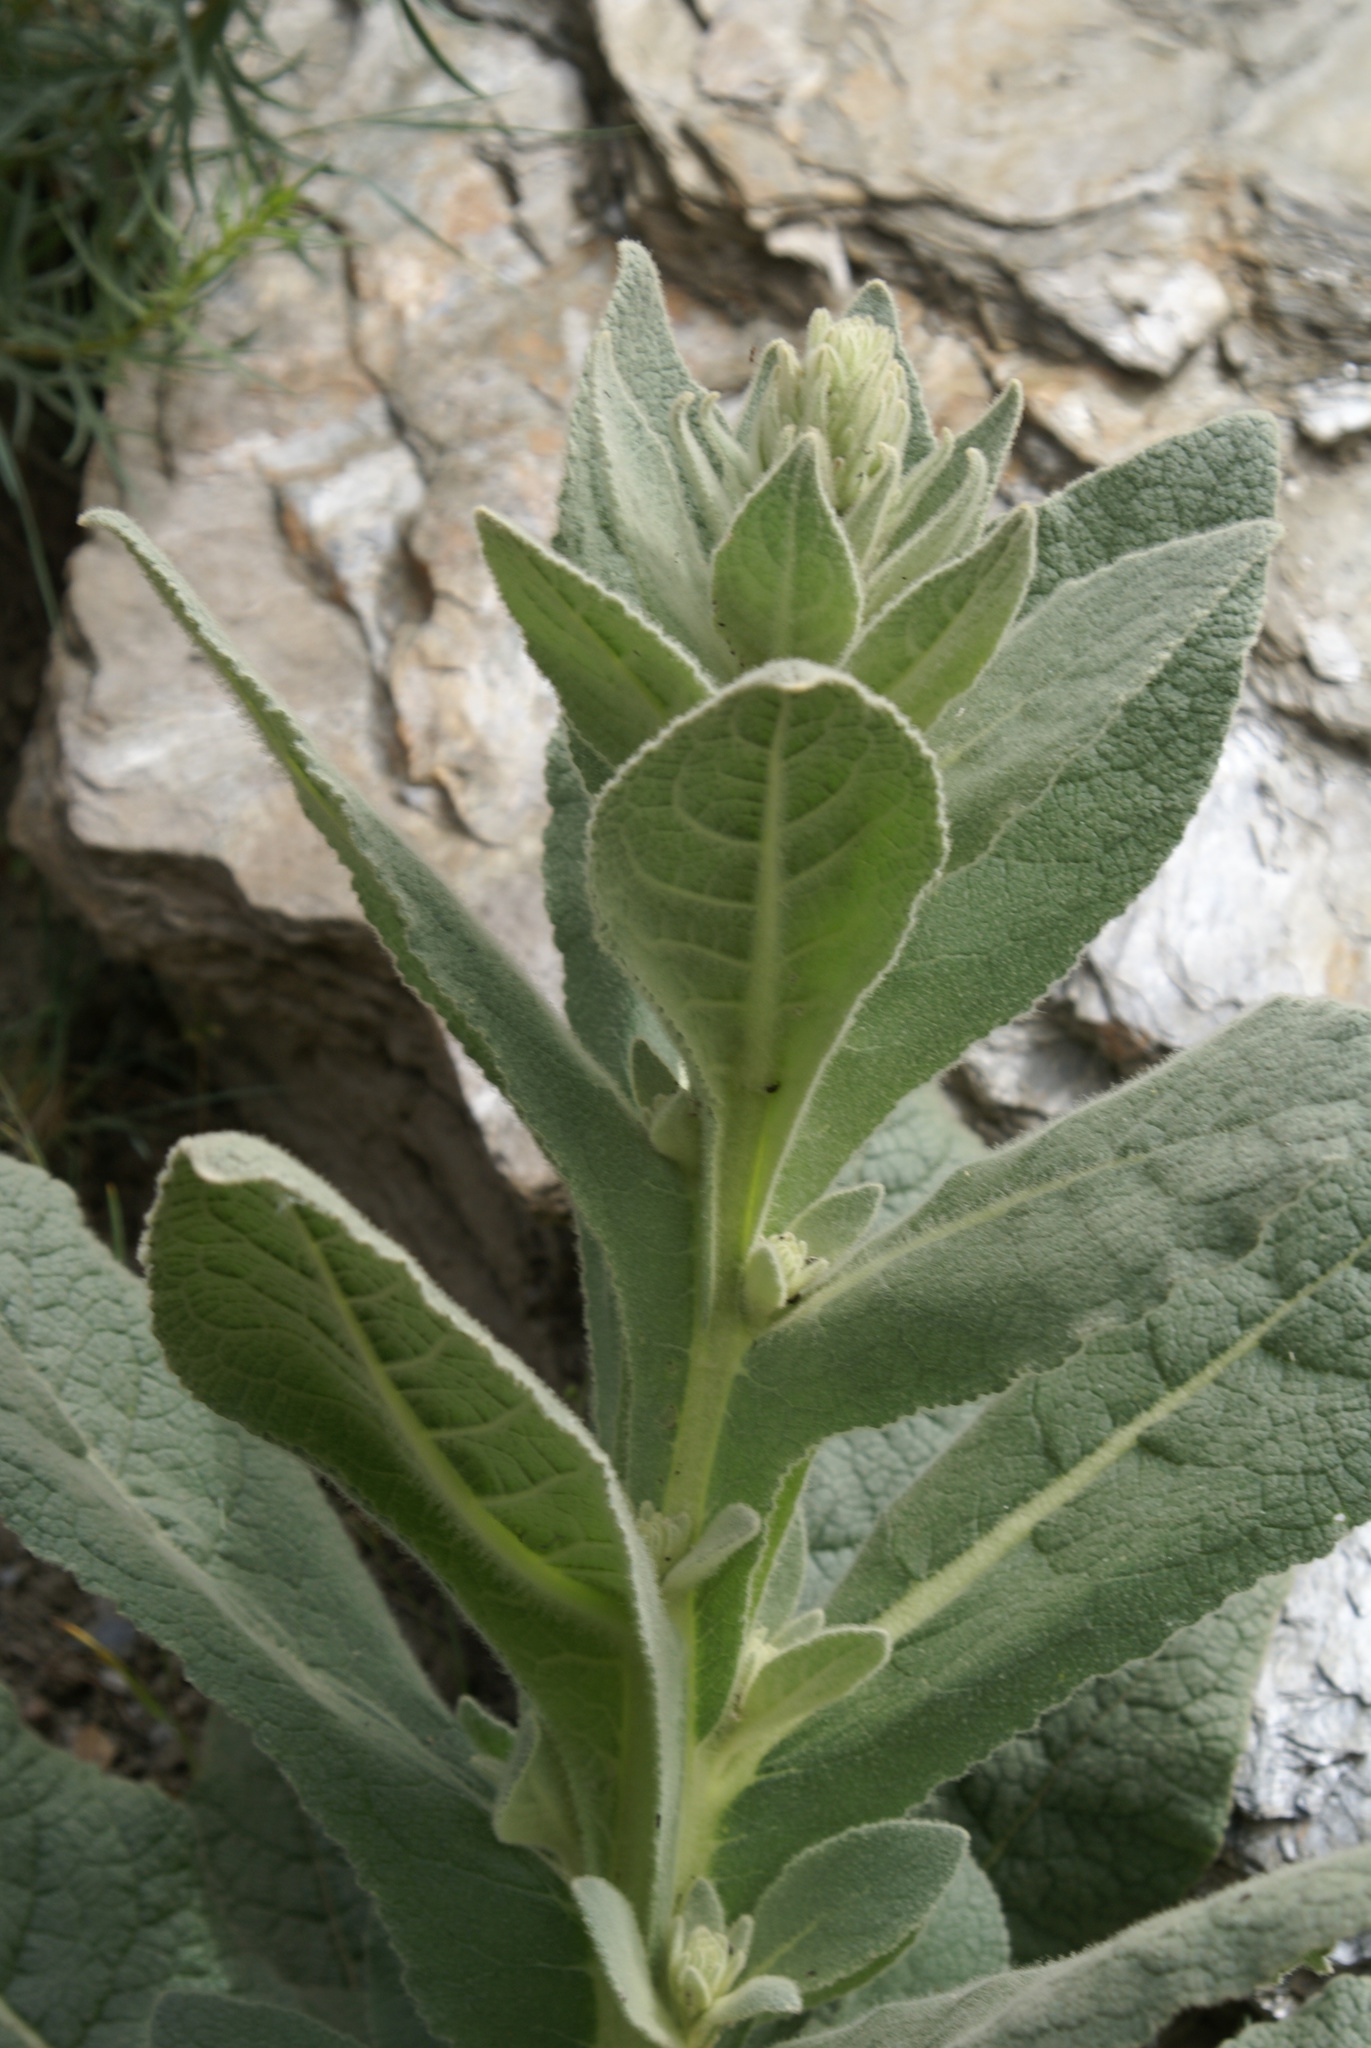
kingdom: Plantae
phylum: Tracheophyta
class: Magnoliopsida
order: Lamiales
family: Scrophulariaceae
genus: Verbascum
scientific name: Verbascum thapsus
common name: Common mullein
